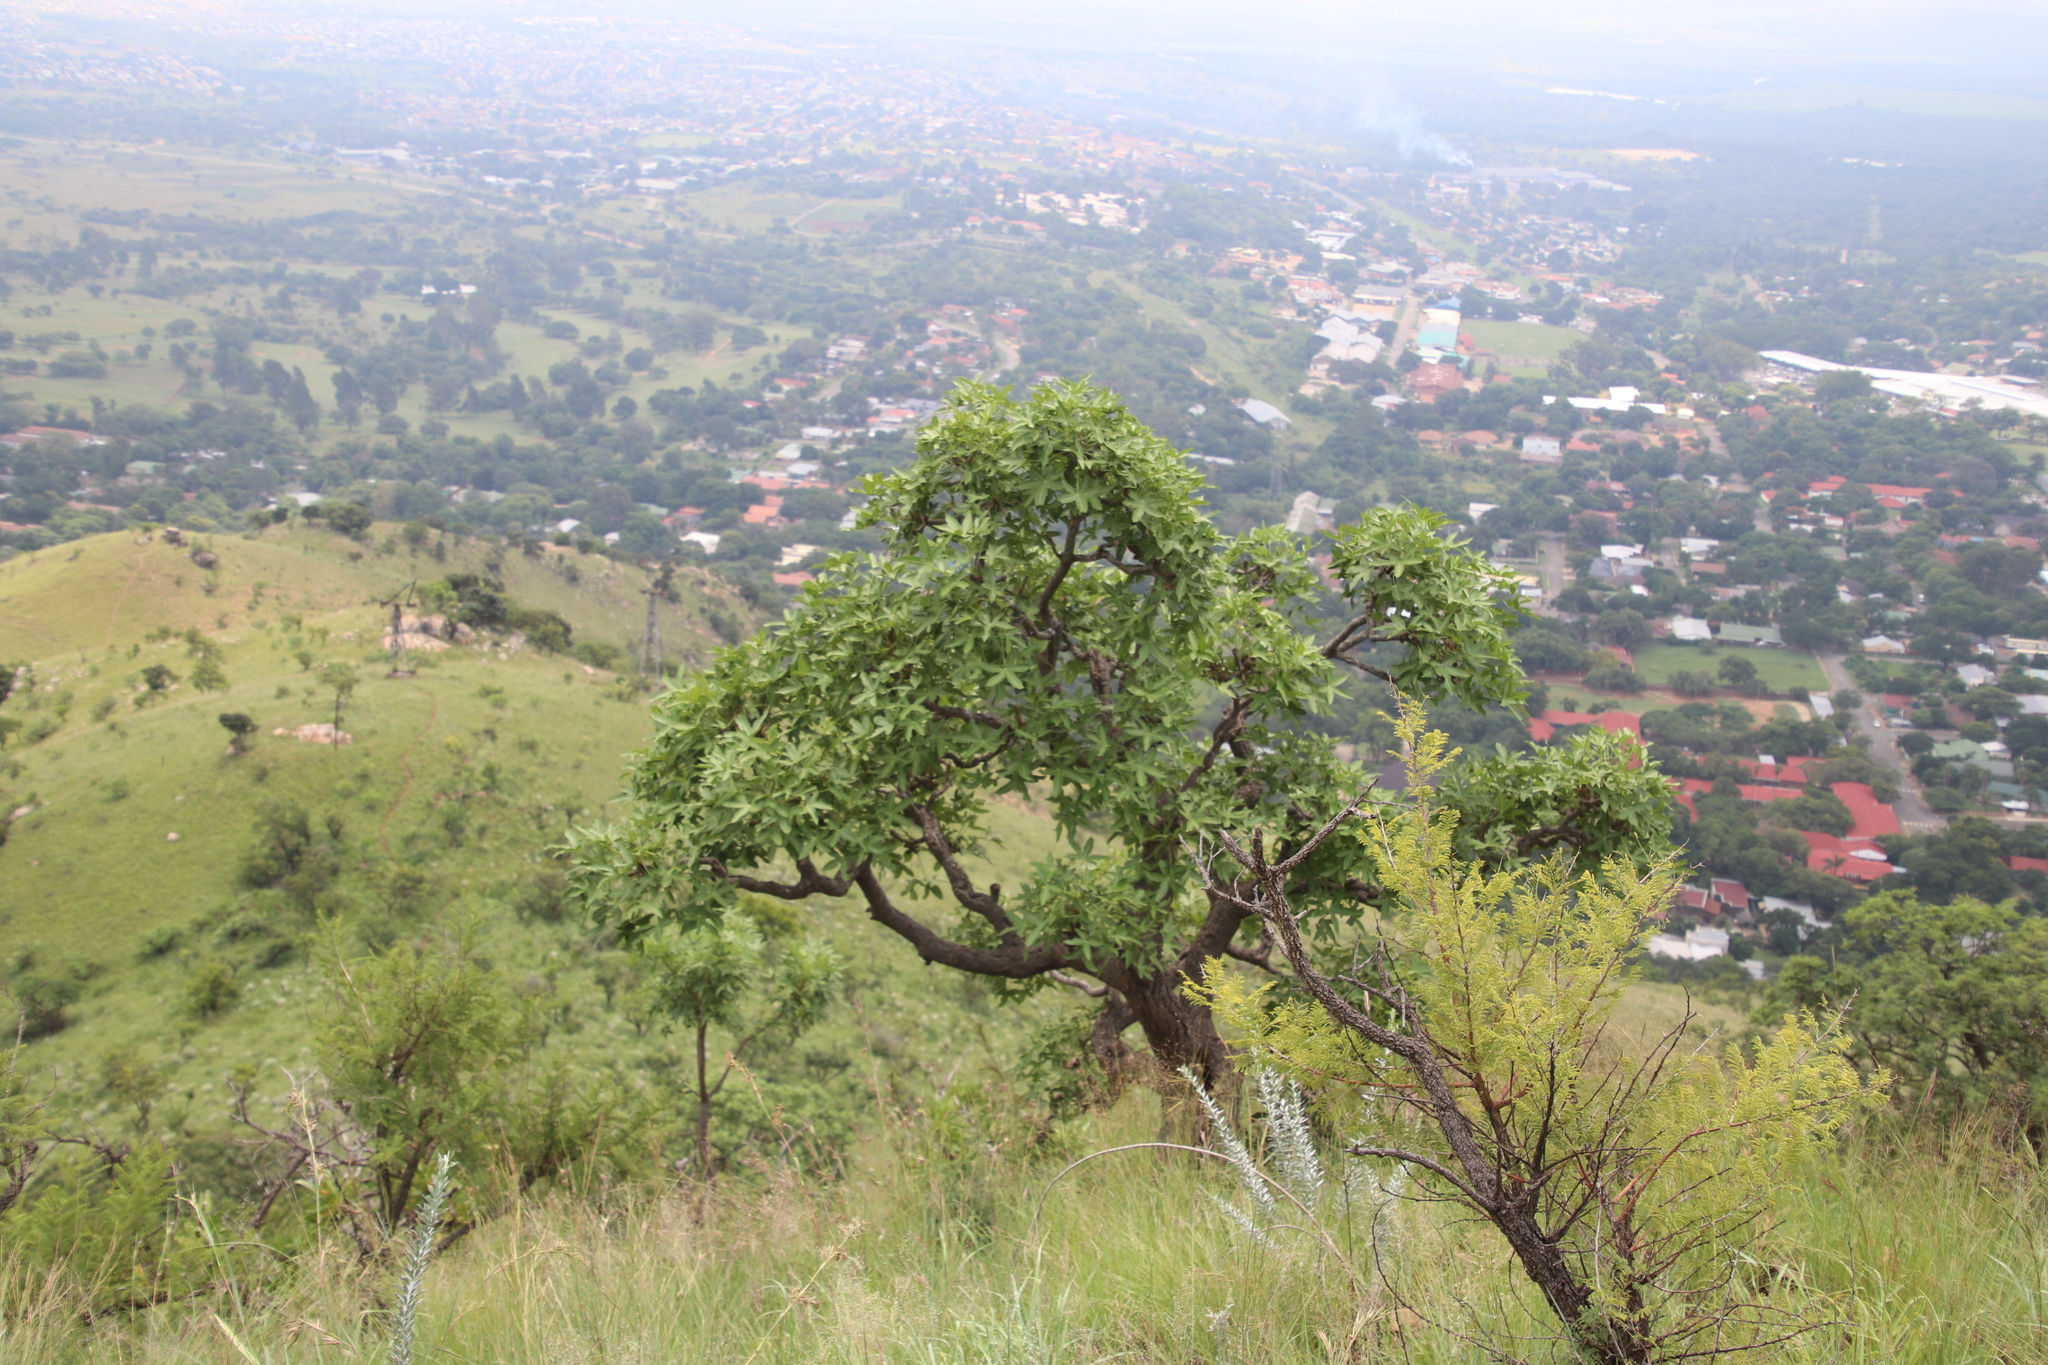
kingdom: Plantae
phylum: Tracheophyta
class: Magnoliopsida
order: Apiales
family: Araliaceae
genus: Cussonia
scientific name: Cussonia natalensis
